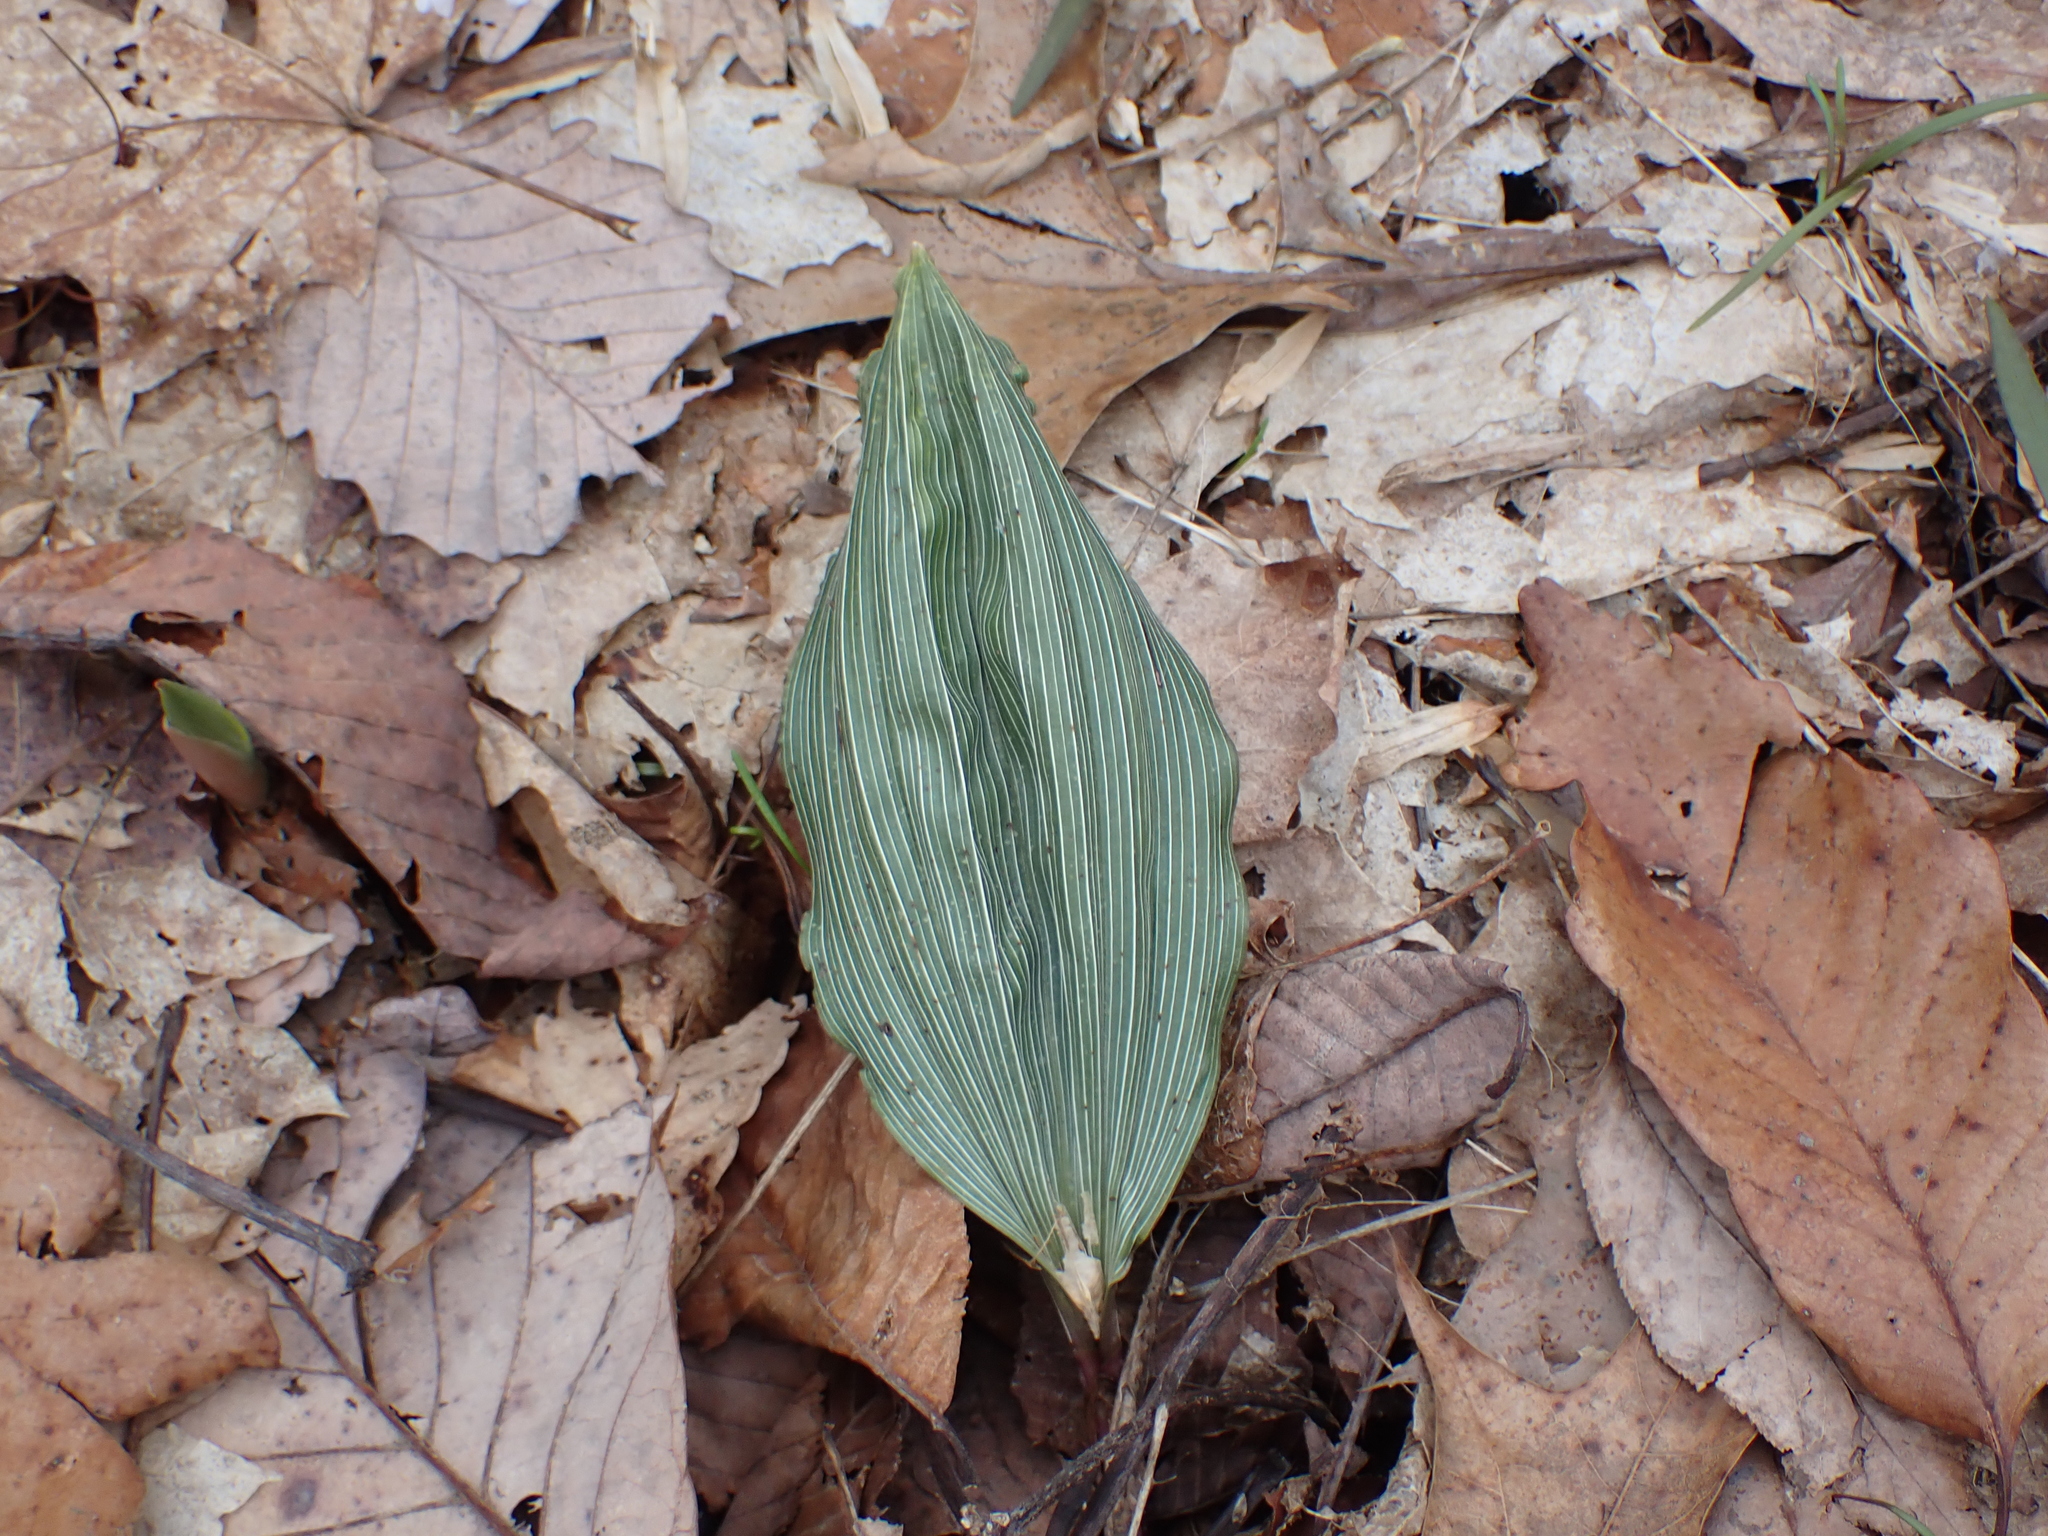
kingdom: Plantae
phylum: Tracheophyta
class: Liliopsida
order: Asparagales
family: Orchidaceae
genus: Aplectrum
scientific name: Aplectrum hyemale
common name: Adam-and-eve
